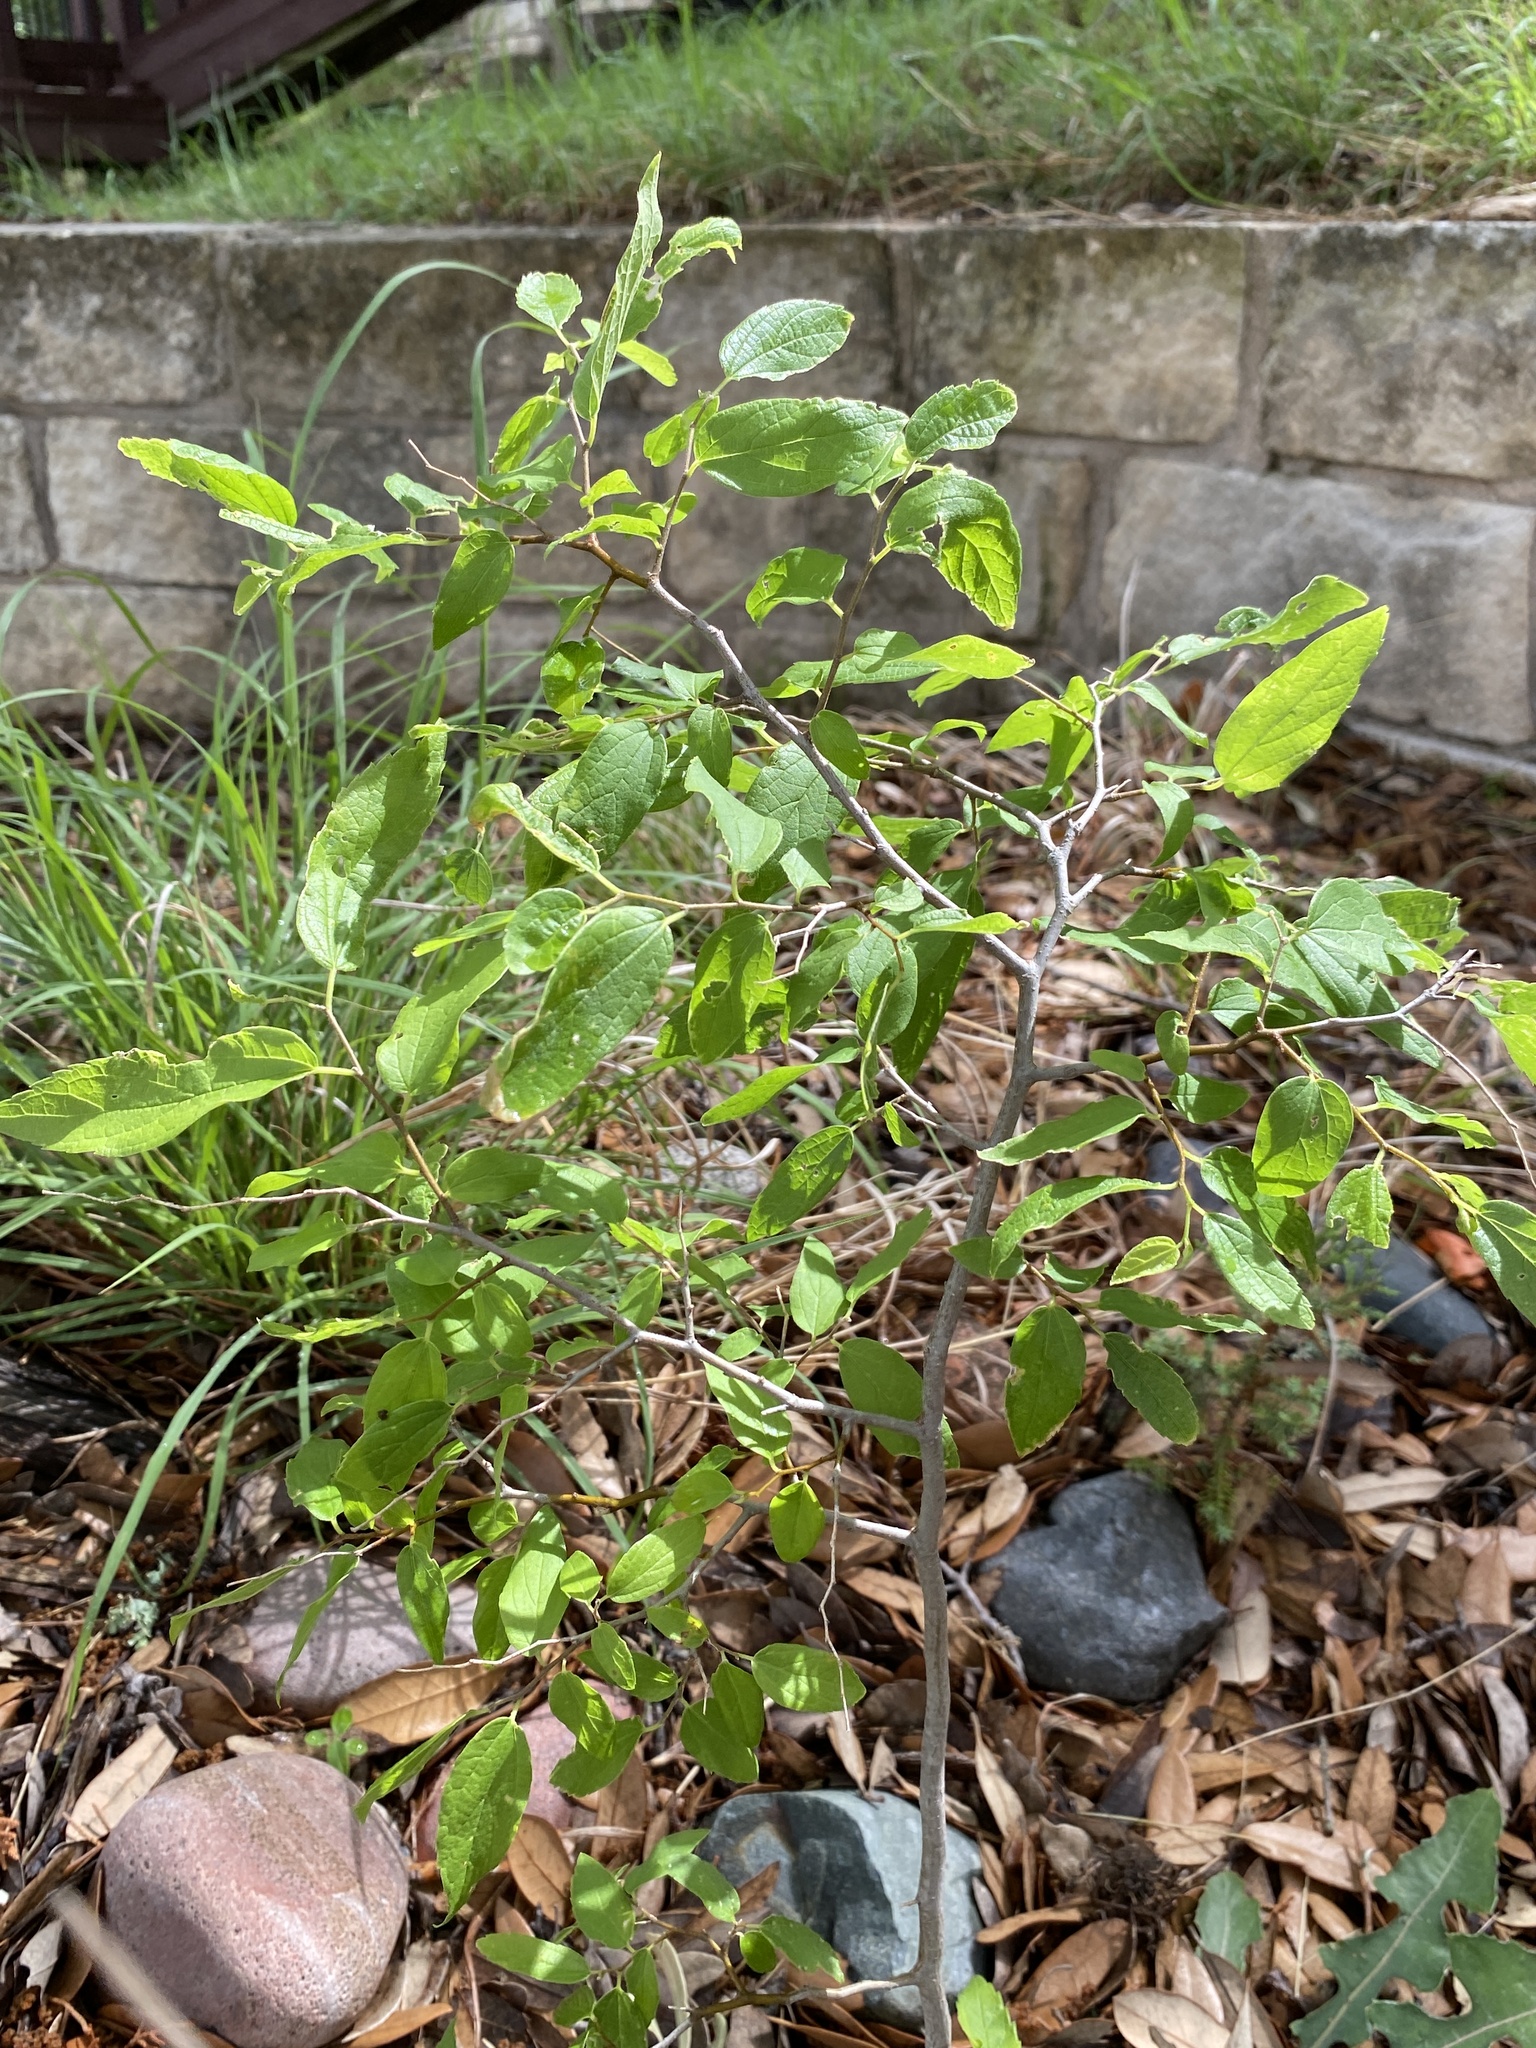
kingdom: Plantae
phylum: Tracheophyta
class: Magnoliopsida
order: Rosales
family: Cannabaceae
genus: Celtis
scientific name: Celtis reticulata
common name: Netleaf hackberry
